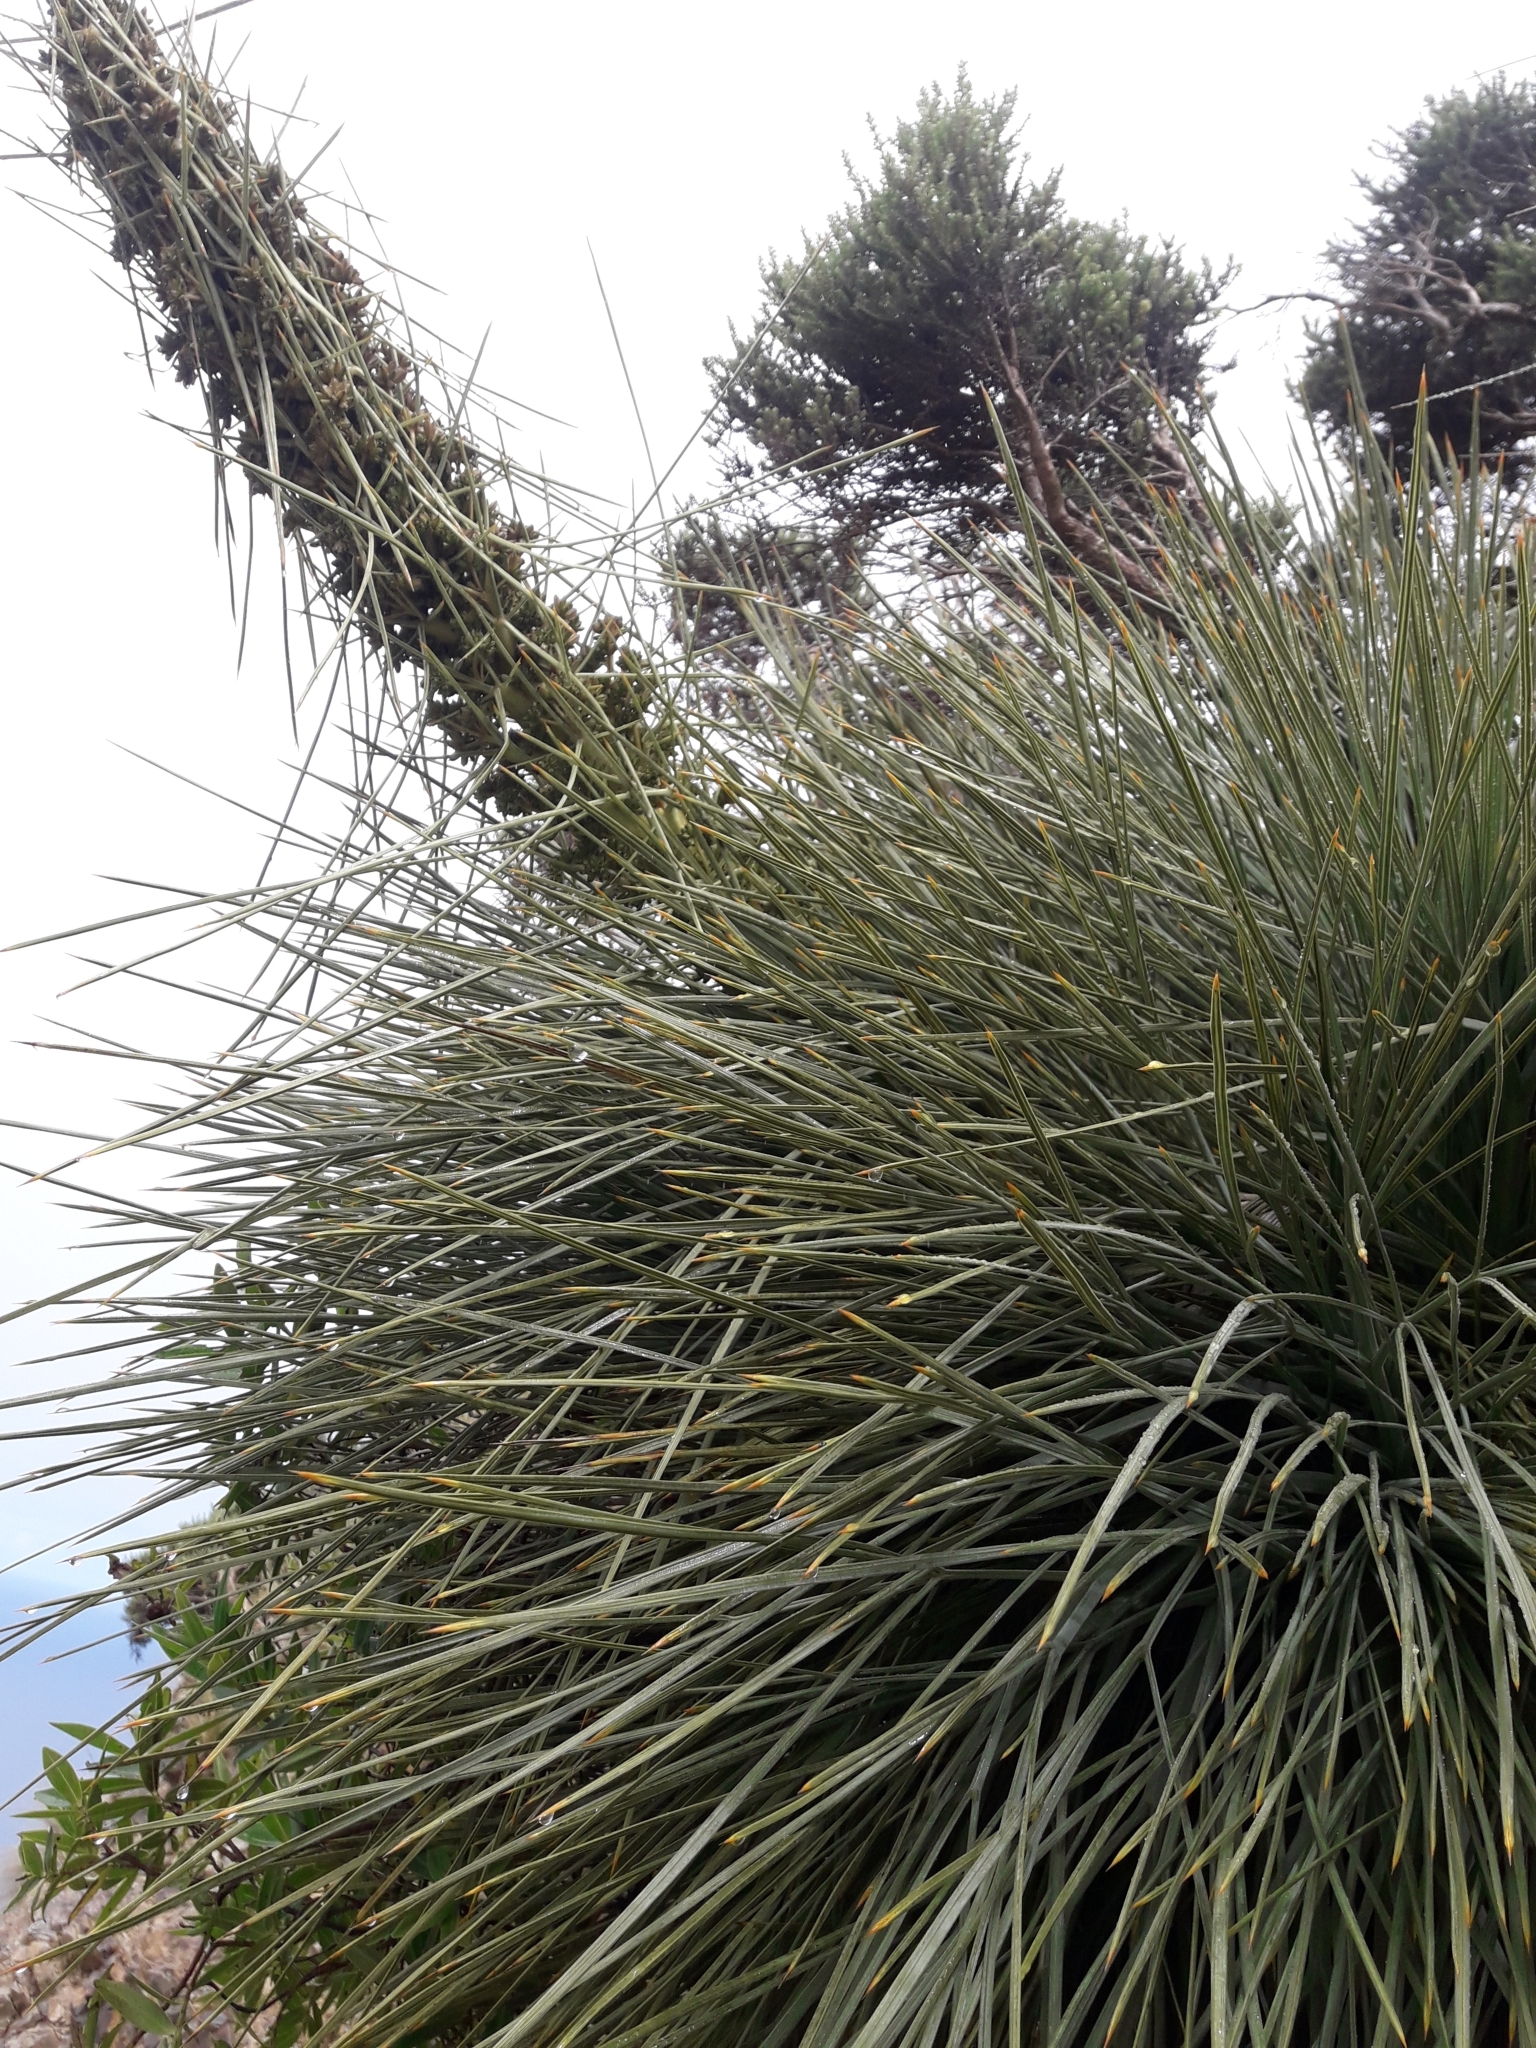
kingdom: Plantae
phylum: Tracheophyta
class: Magnoliopsida
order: Apiales
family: Apiaceae
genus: Aciphylla
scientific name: Aciphylla squarrosa
